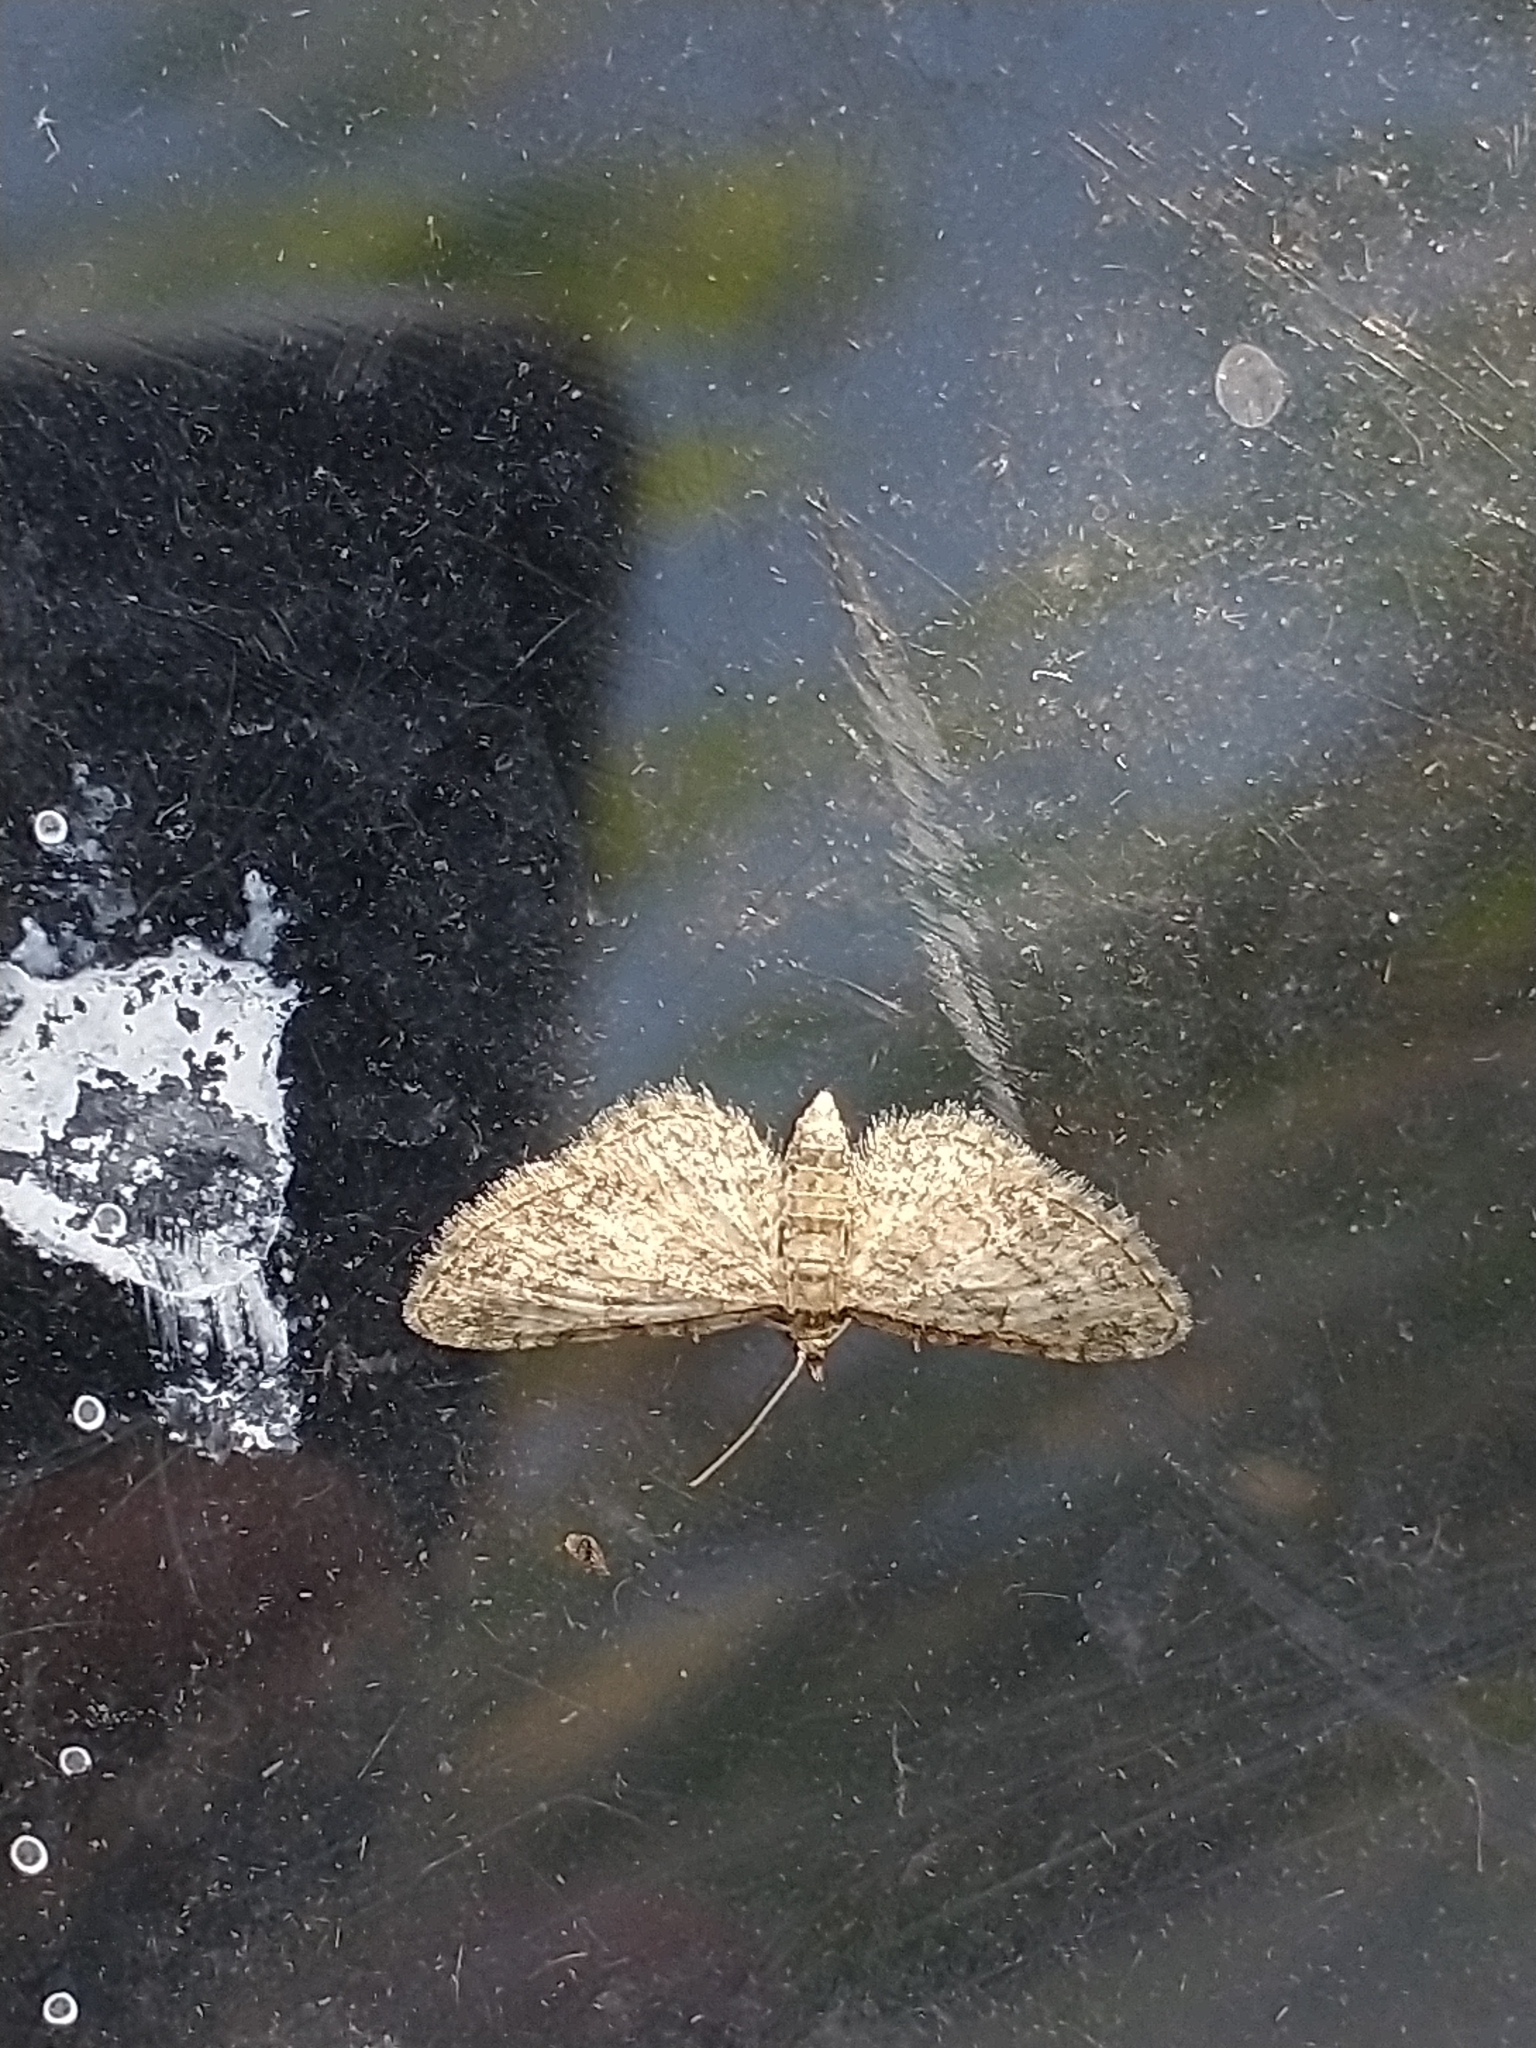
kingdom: Animalia
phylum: Arthropoda
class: Insecta
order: Lepidoptera
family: Geometridae
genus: Eupithecia
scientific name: Eupithecia inturbata
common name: Maple pug
